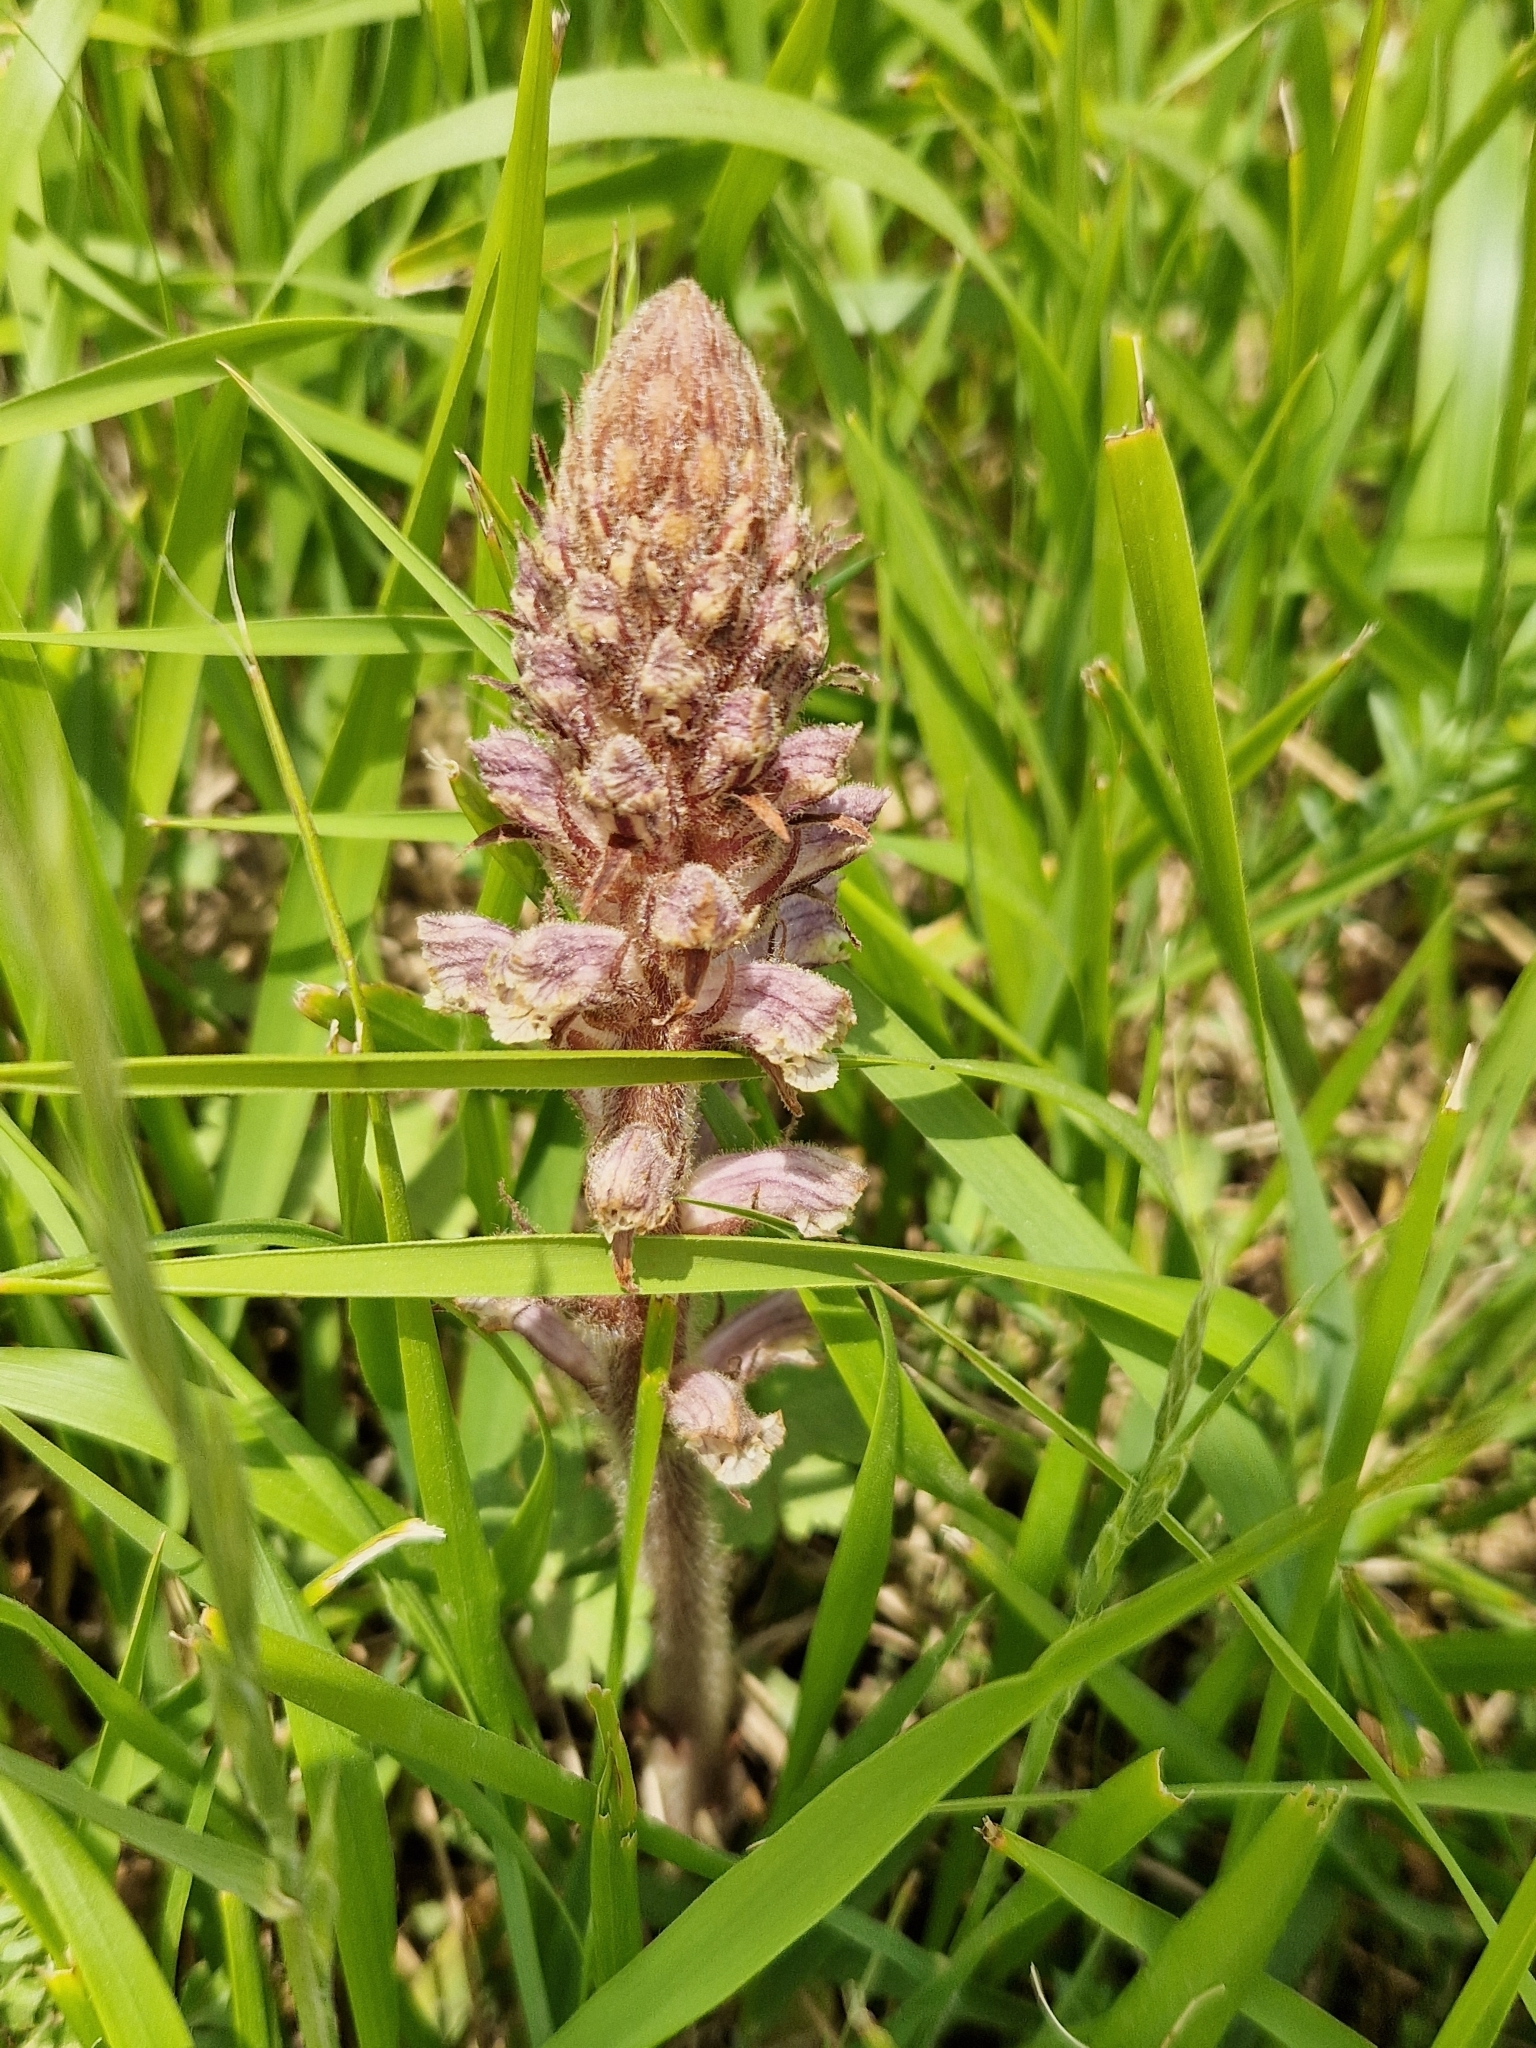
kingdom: Plantae
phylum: Tracheophyta
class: Magnoliopsida
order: Lamiales
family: Orobanchaceae
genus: Orobanche
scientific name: Orobanche minor
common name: Common broomrape
